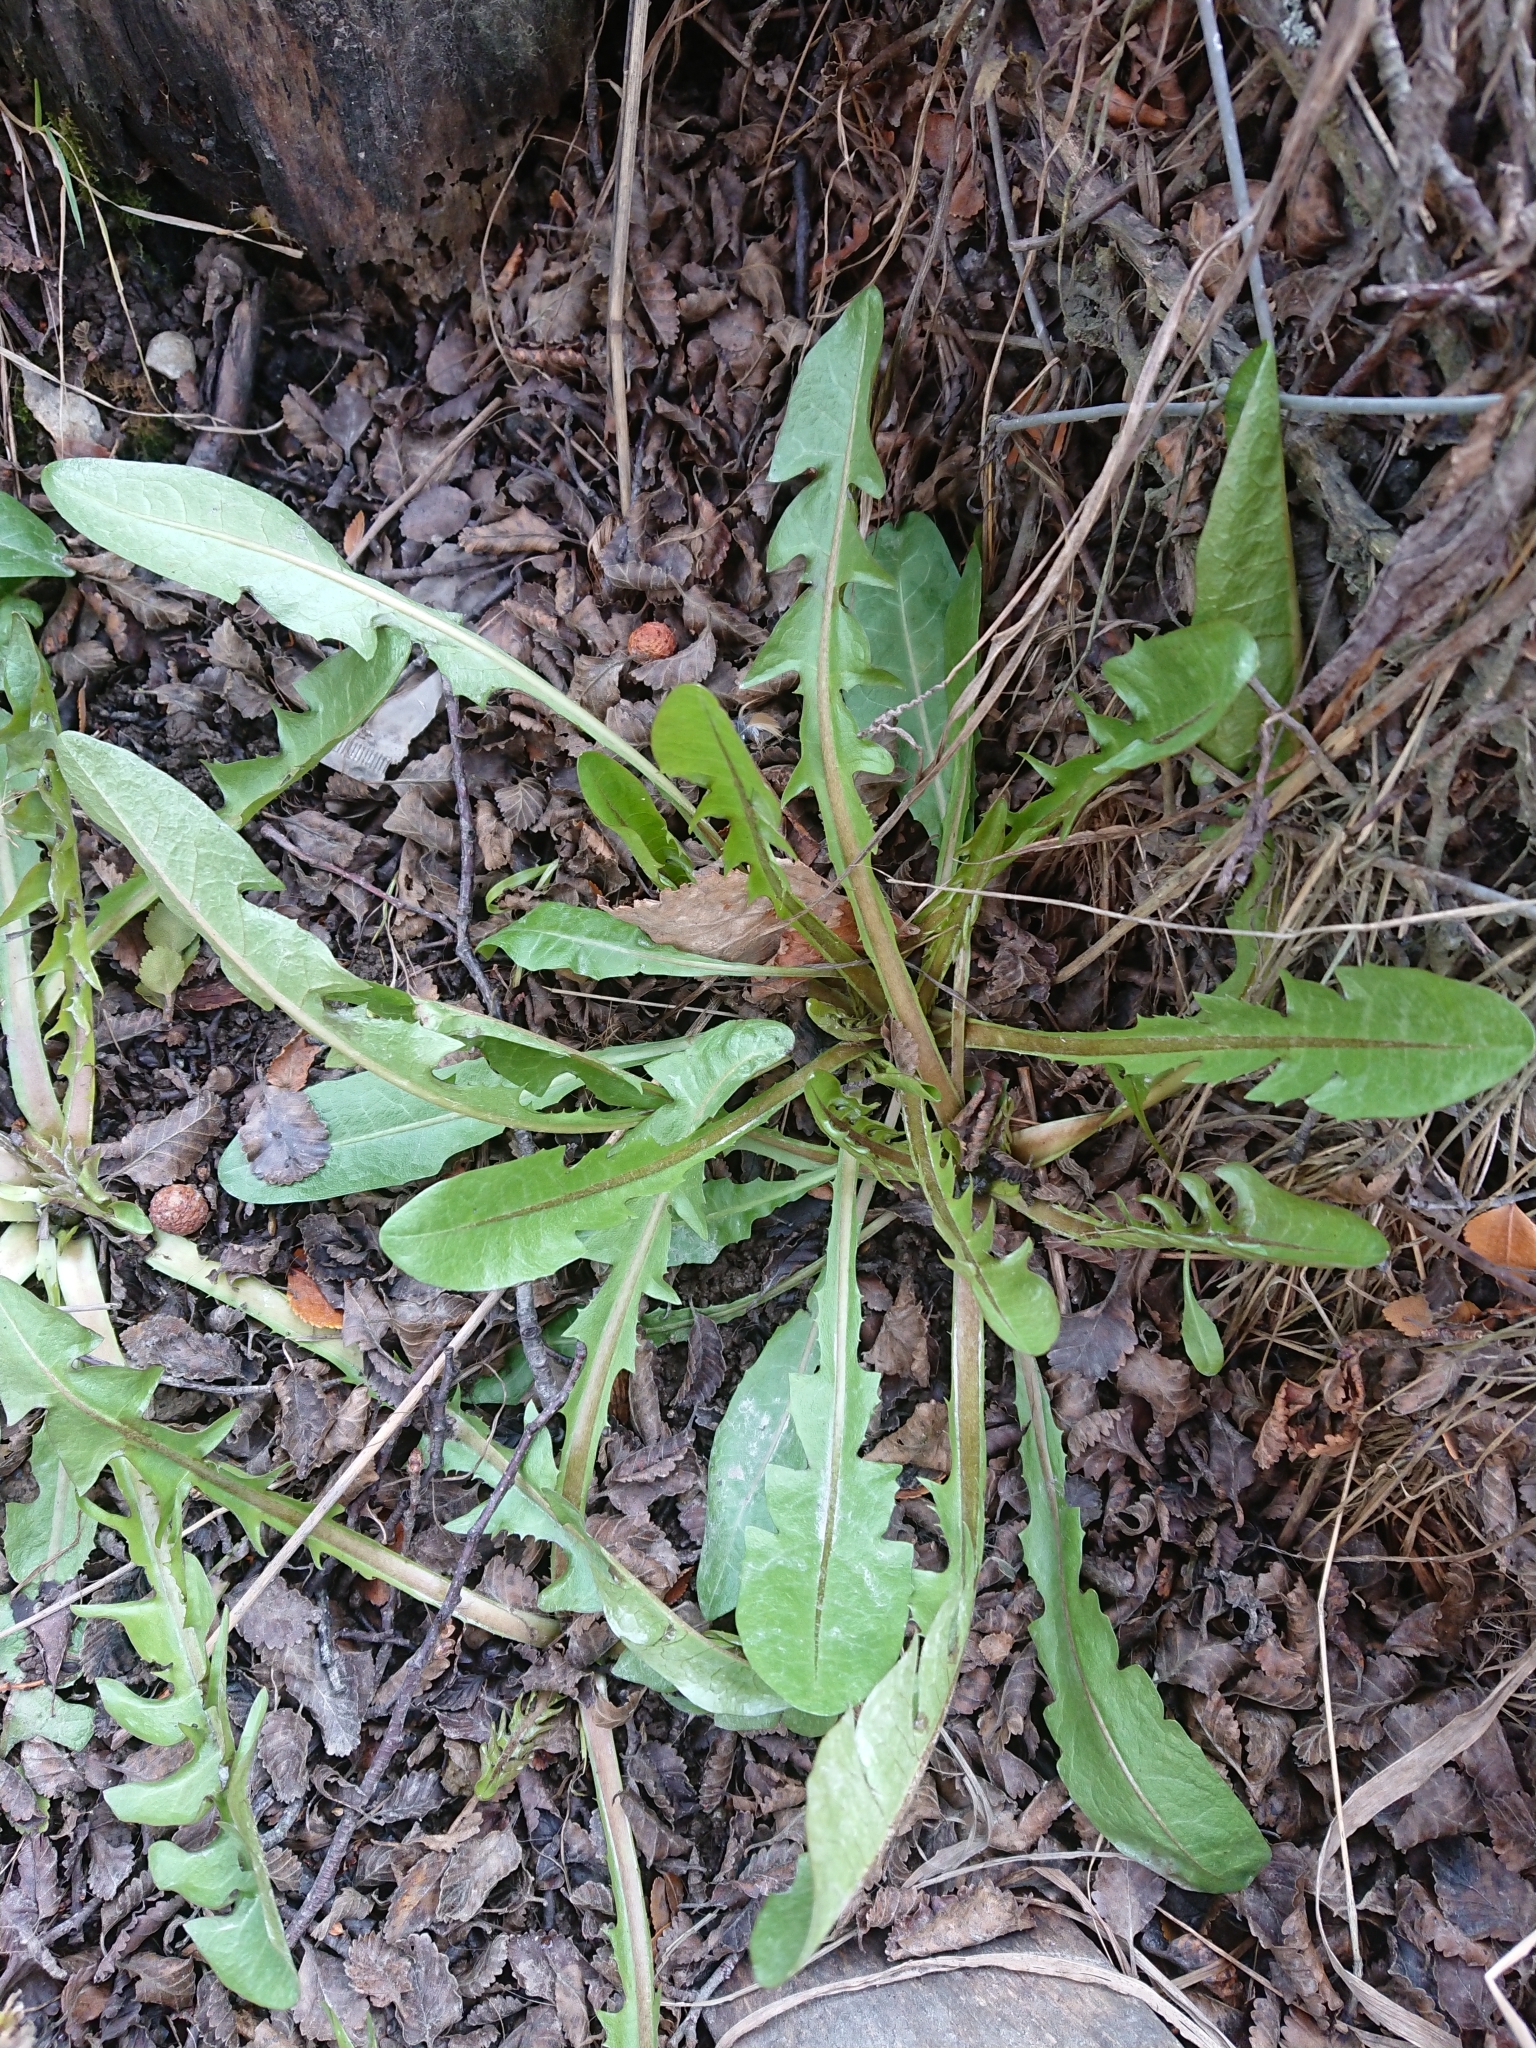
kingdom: Plantae
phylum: Tracheophyta
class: Magnoliopsida
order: Asterales
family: Asteraceae
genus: Taraxacum
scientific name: Taraxacum officinale
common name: Common dandelion
